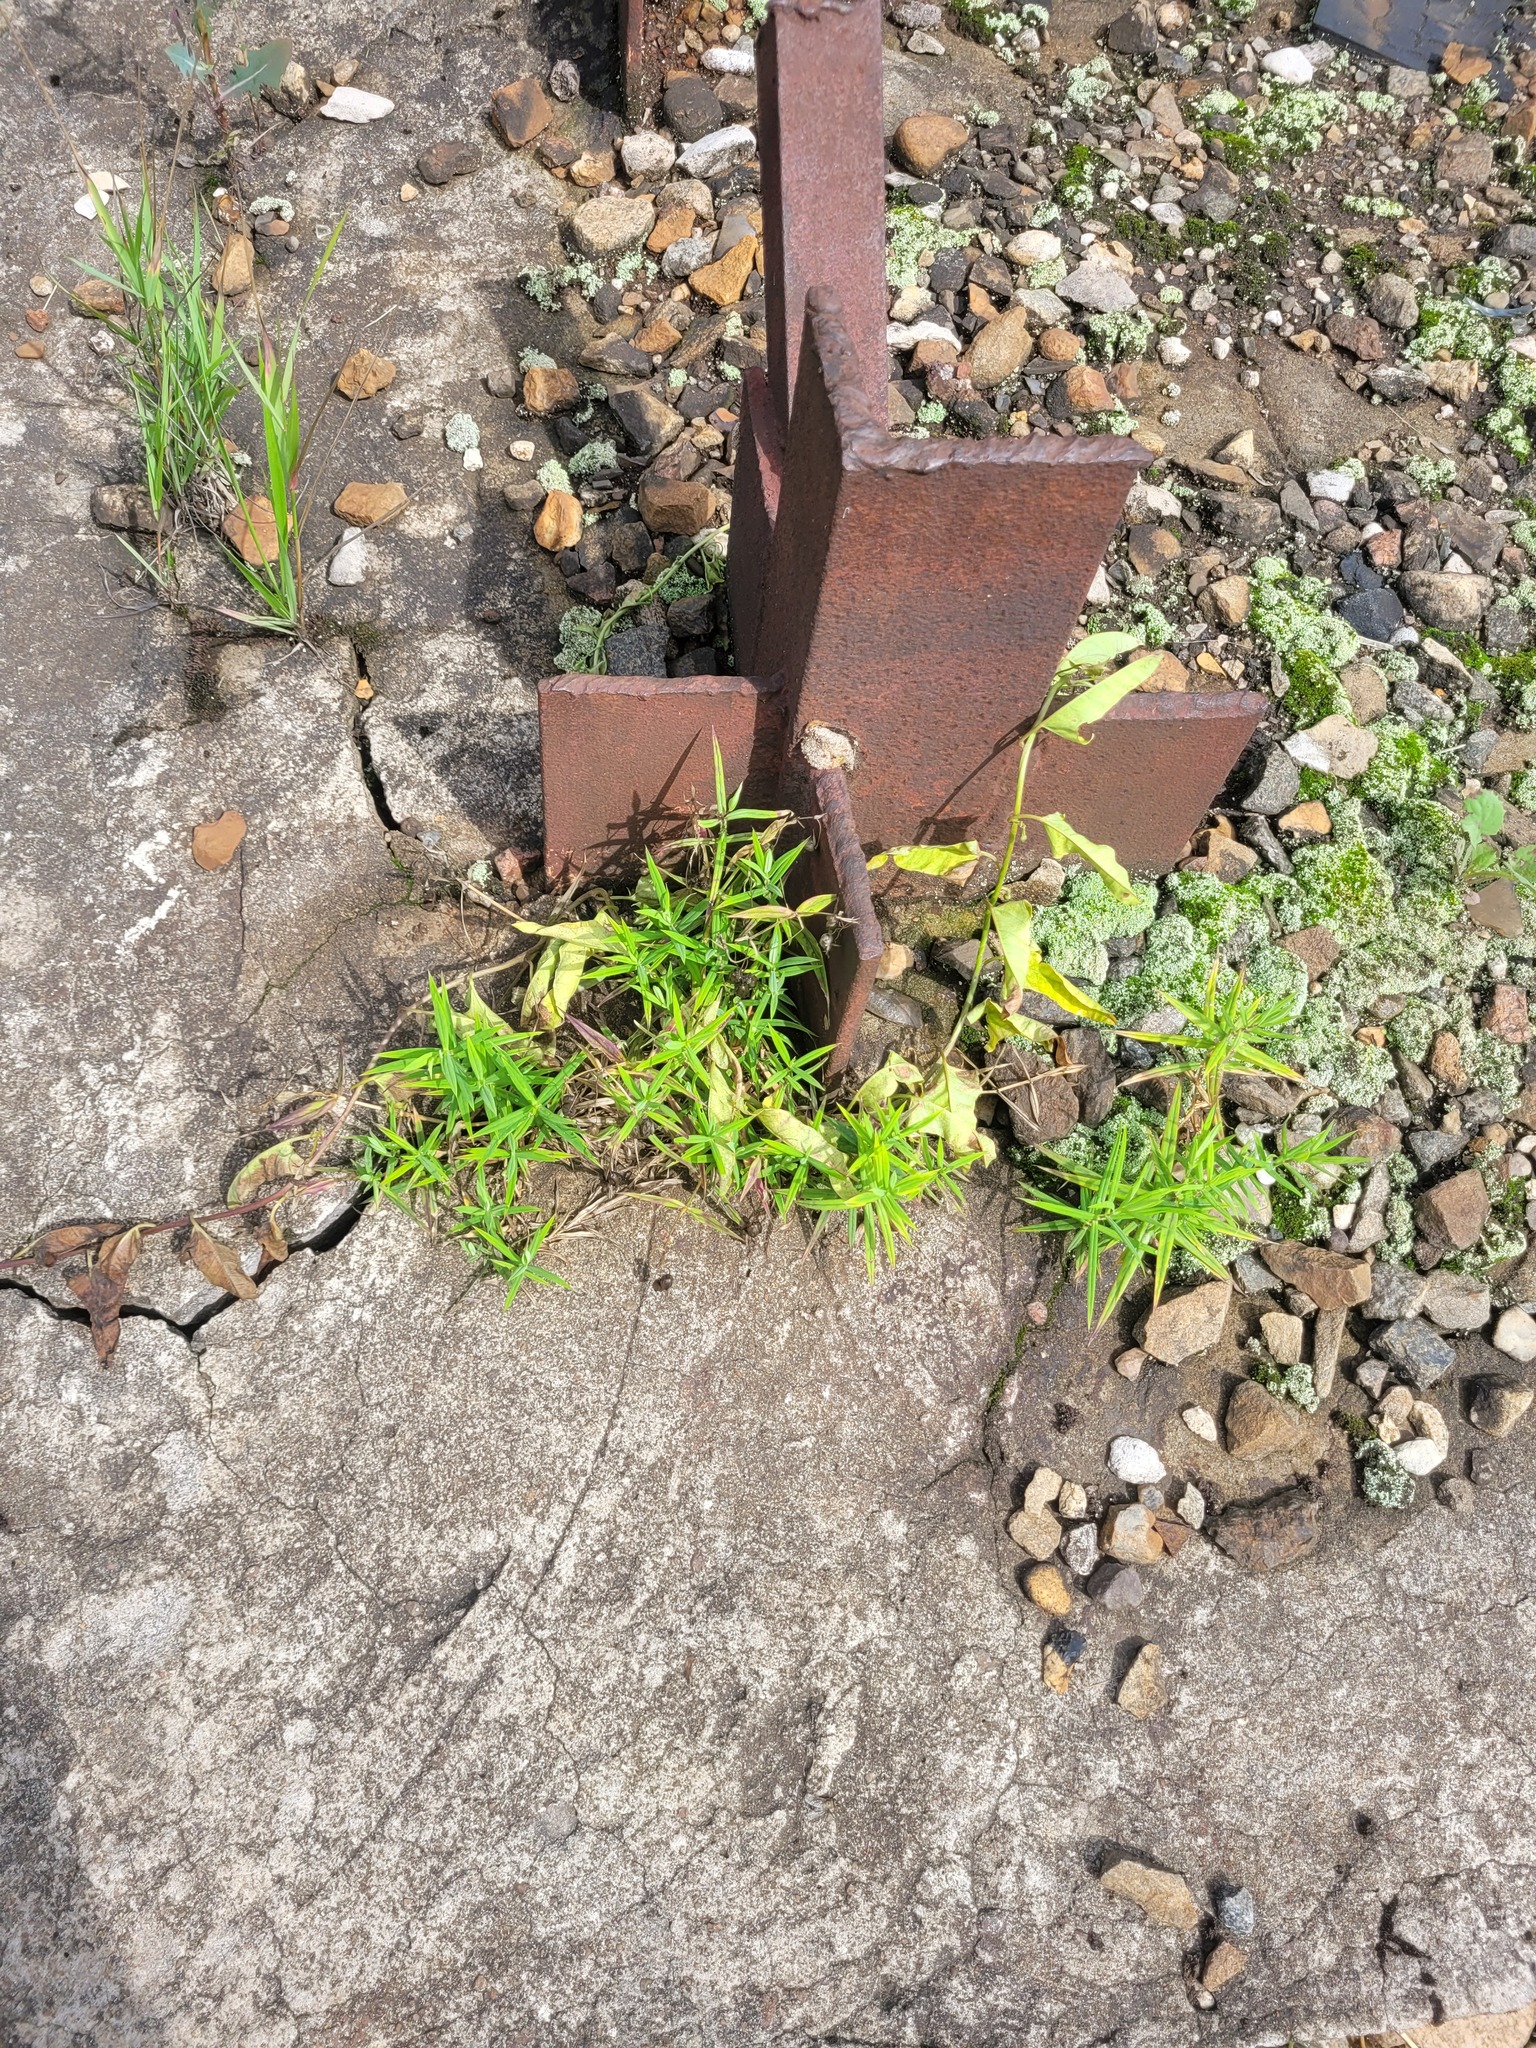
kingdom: Plantae
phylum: Tracheophyta
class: Magnoliopsida
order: Caryophyllales
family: Caryophyllaceae
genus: Rabelera
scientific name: Rabelera holostea
